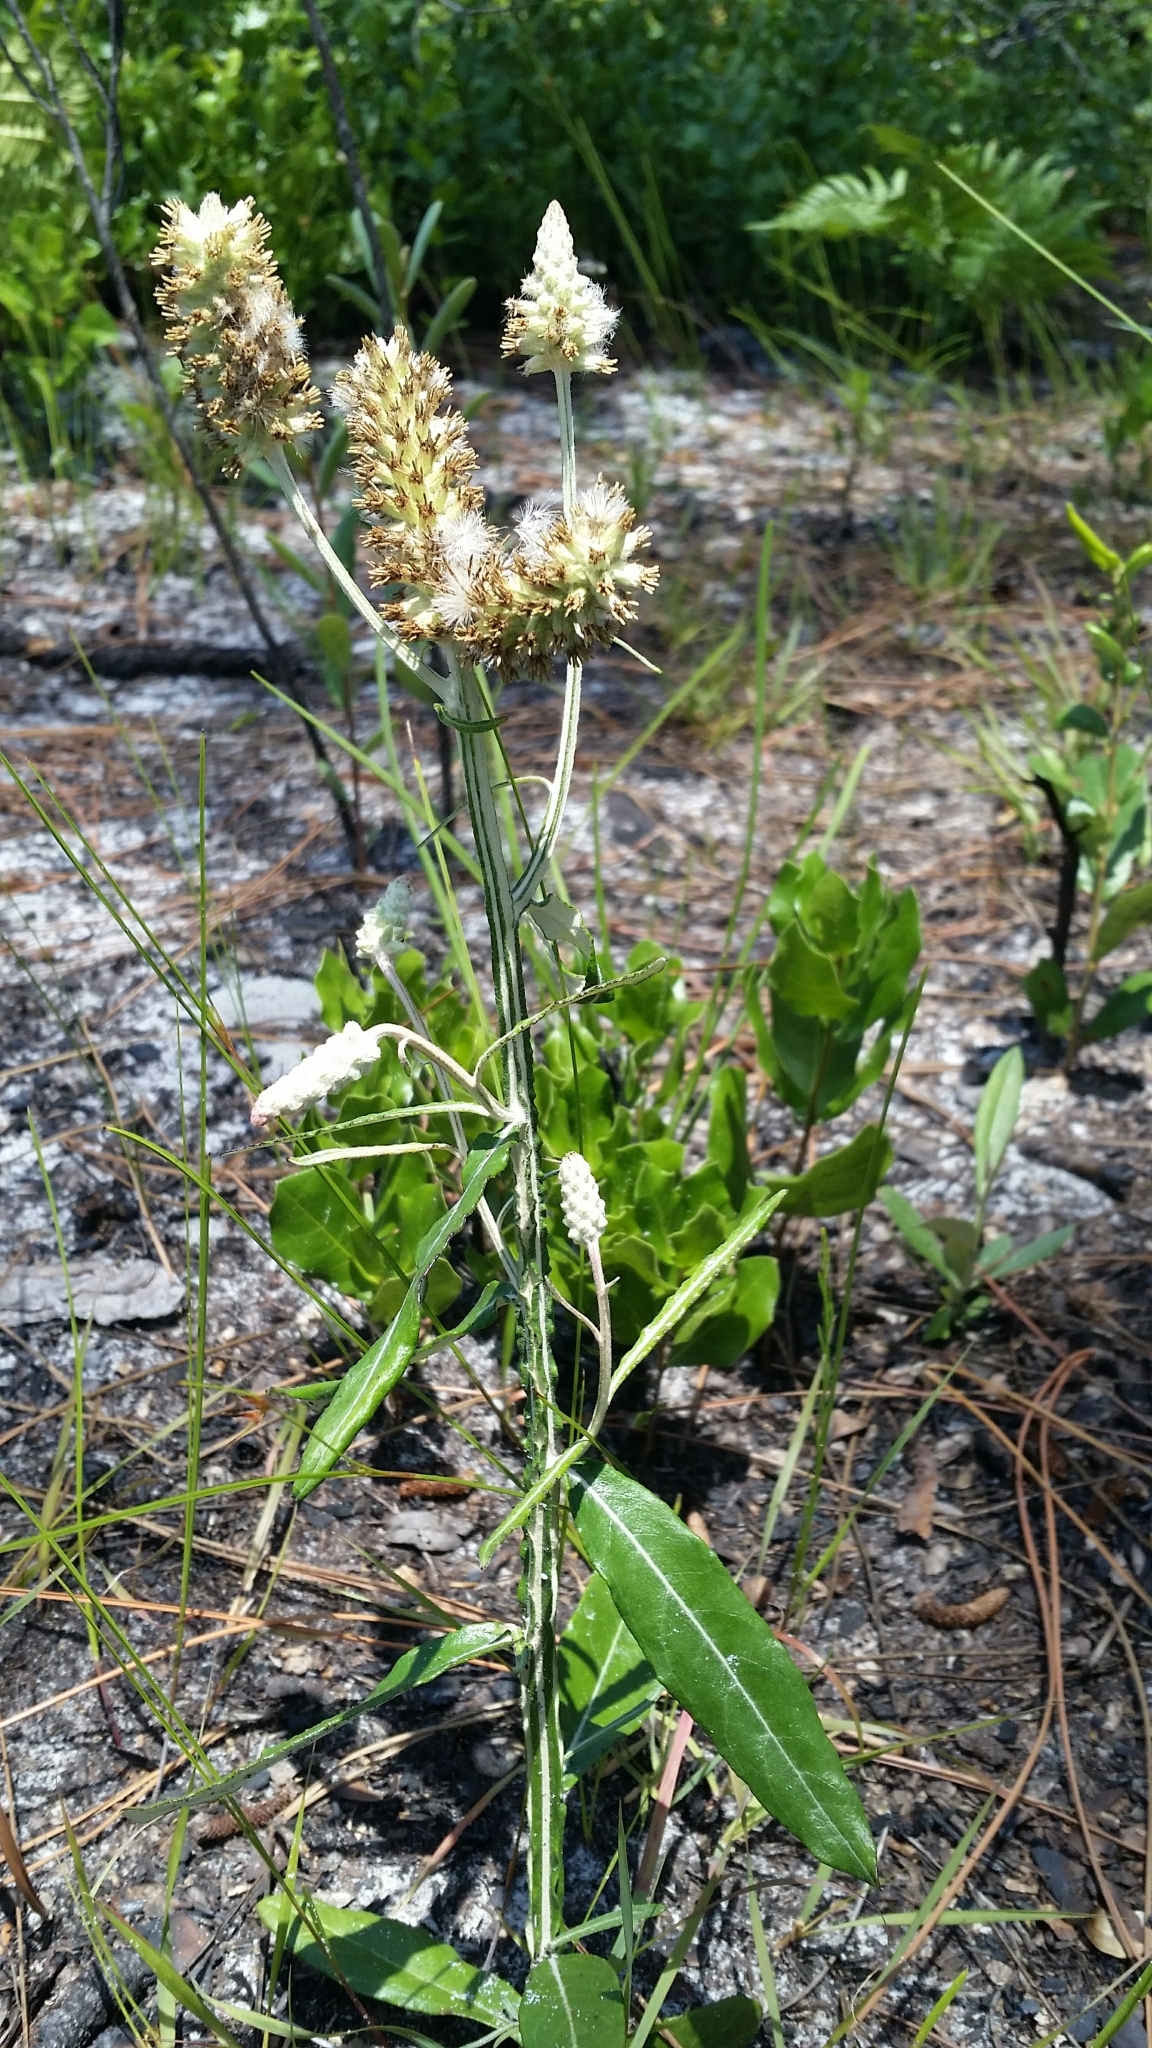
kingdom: Plantae
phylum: Tracheophyta
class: Magnoliopsida
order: Asterales
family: Asteraceae
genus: Pterocaulon
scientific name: Pterocaulon pycnostachyum
